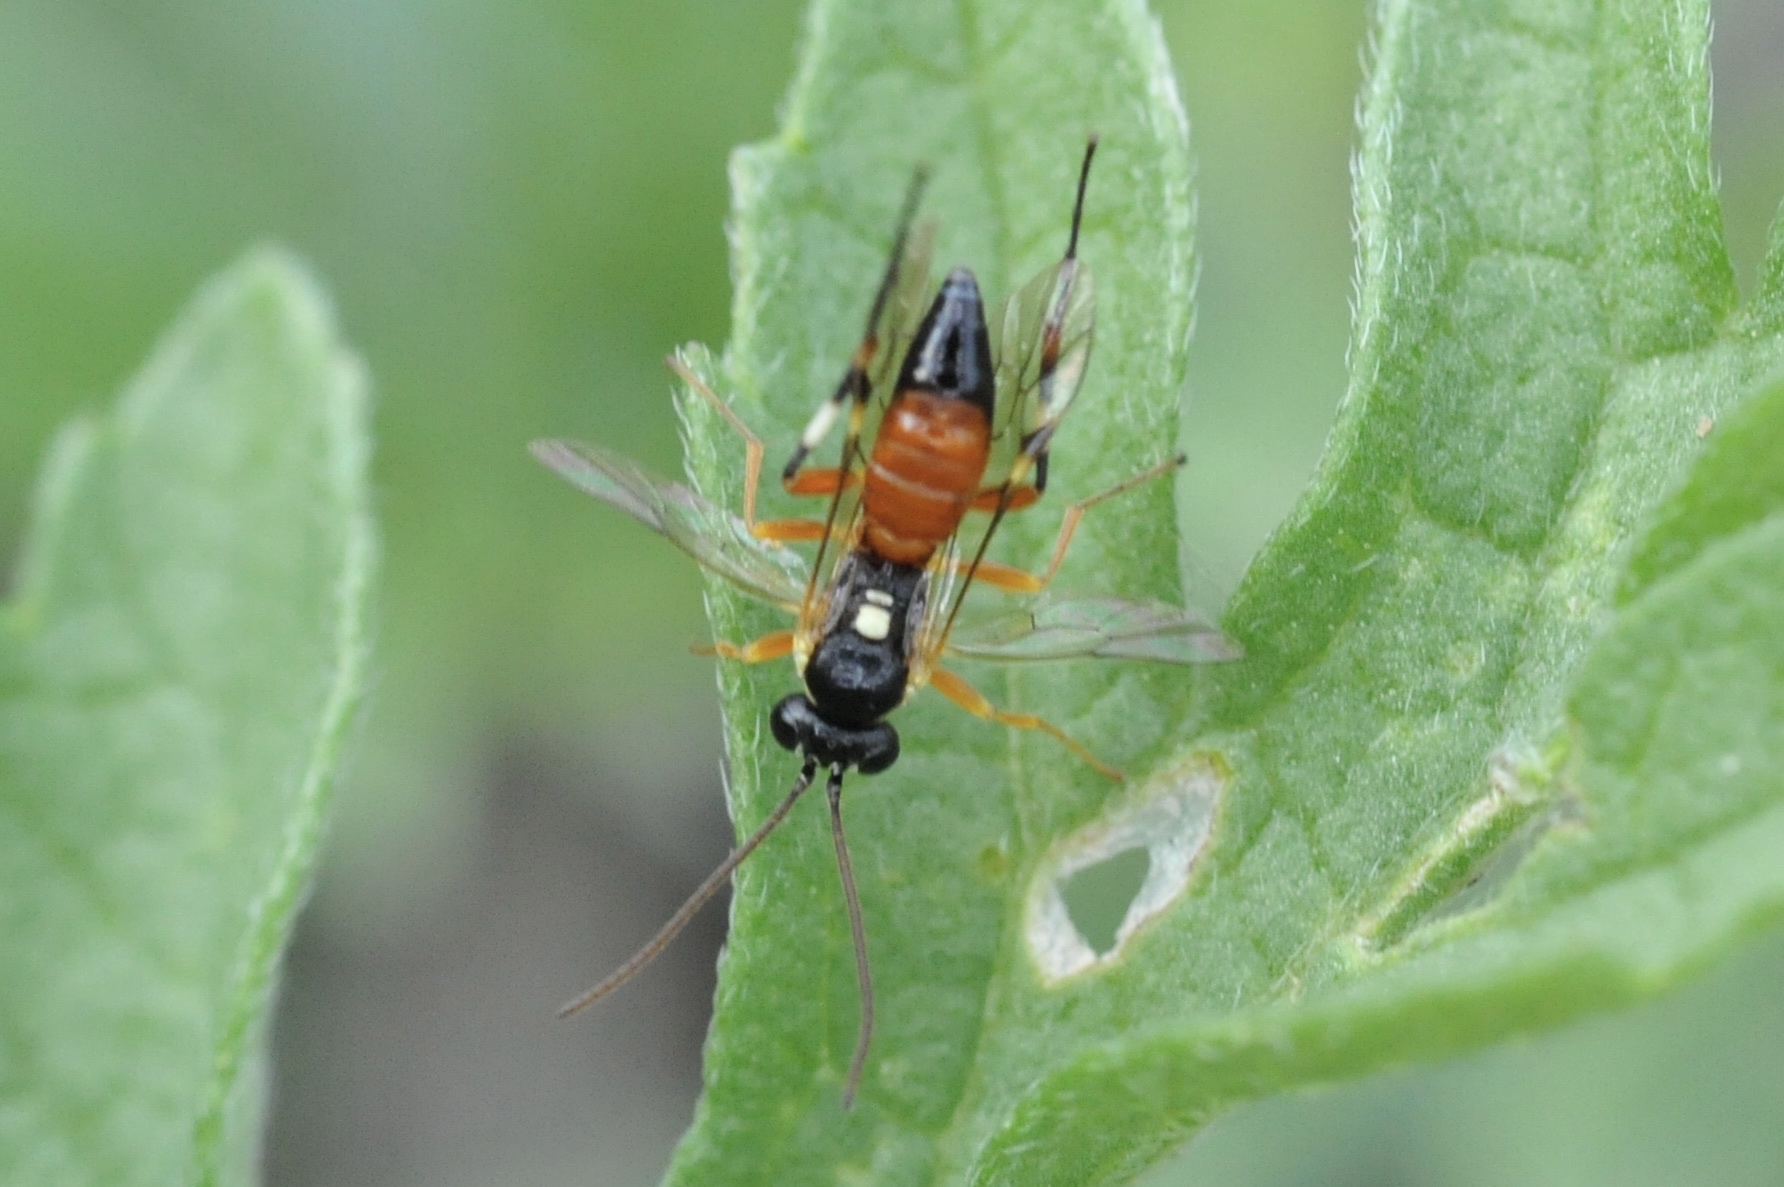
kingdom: Animalia
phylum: Arthropoda
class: Insecta
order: Hymenoptera
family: Ichneumonidae
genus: Diplazon
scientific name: Diplazon laetatorius
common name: Parasitoid wasp
